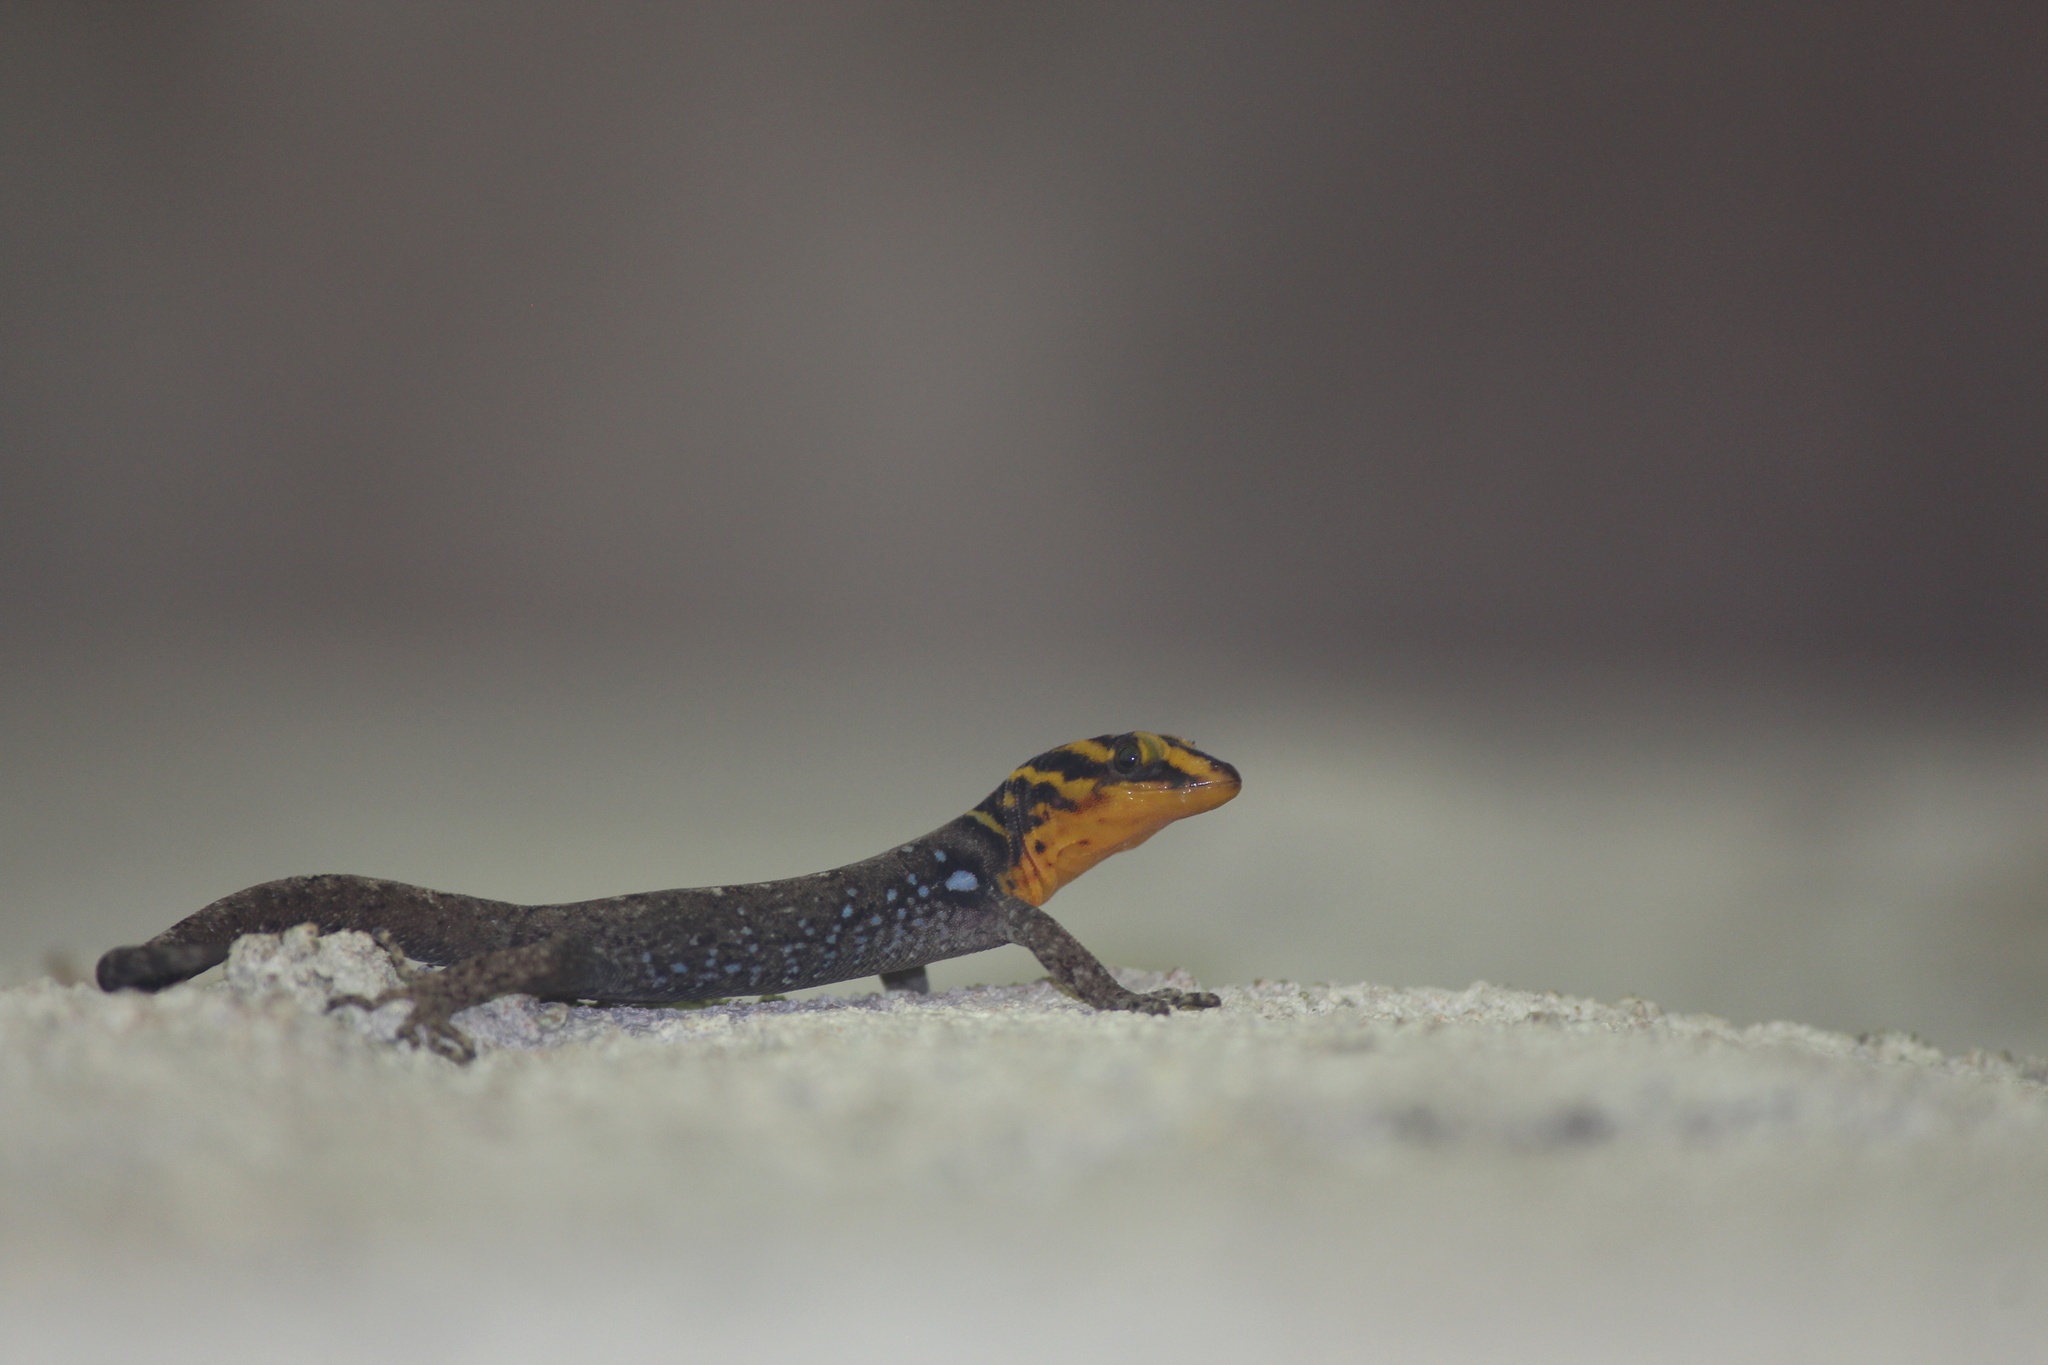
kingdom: Animalia
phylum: Chordata
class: Squamata
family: Sphaerodactylidae
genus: Gonatodes
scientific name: Gonatodes caudiscutatus
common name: Shieldhead gecko
